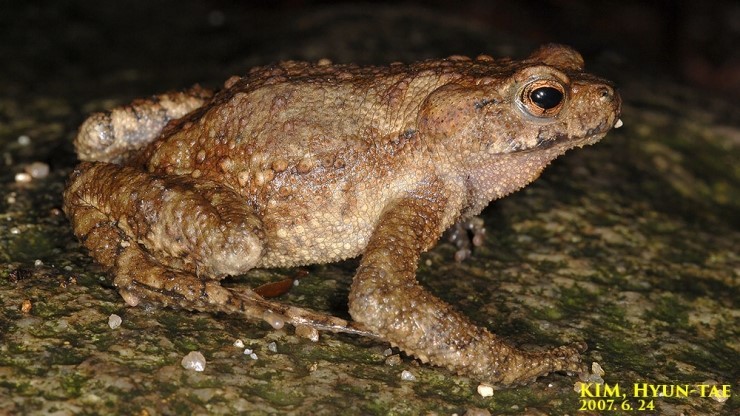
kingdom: Animalia
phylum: Chordata
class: Amphibia
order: Anura
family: Bufonidae
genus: Bufo
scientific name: Bufo stejnegeri
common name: Water toad
